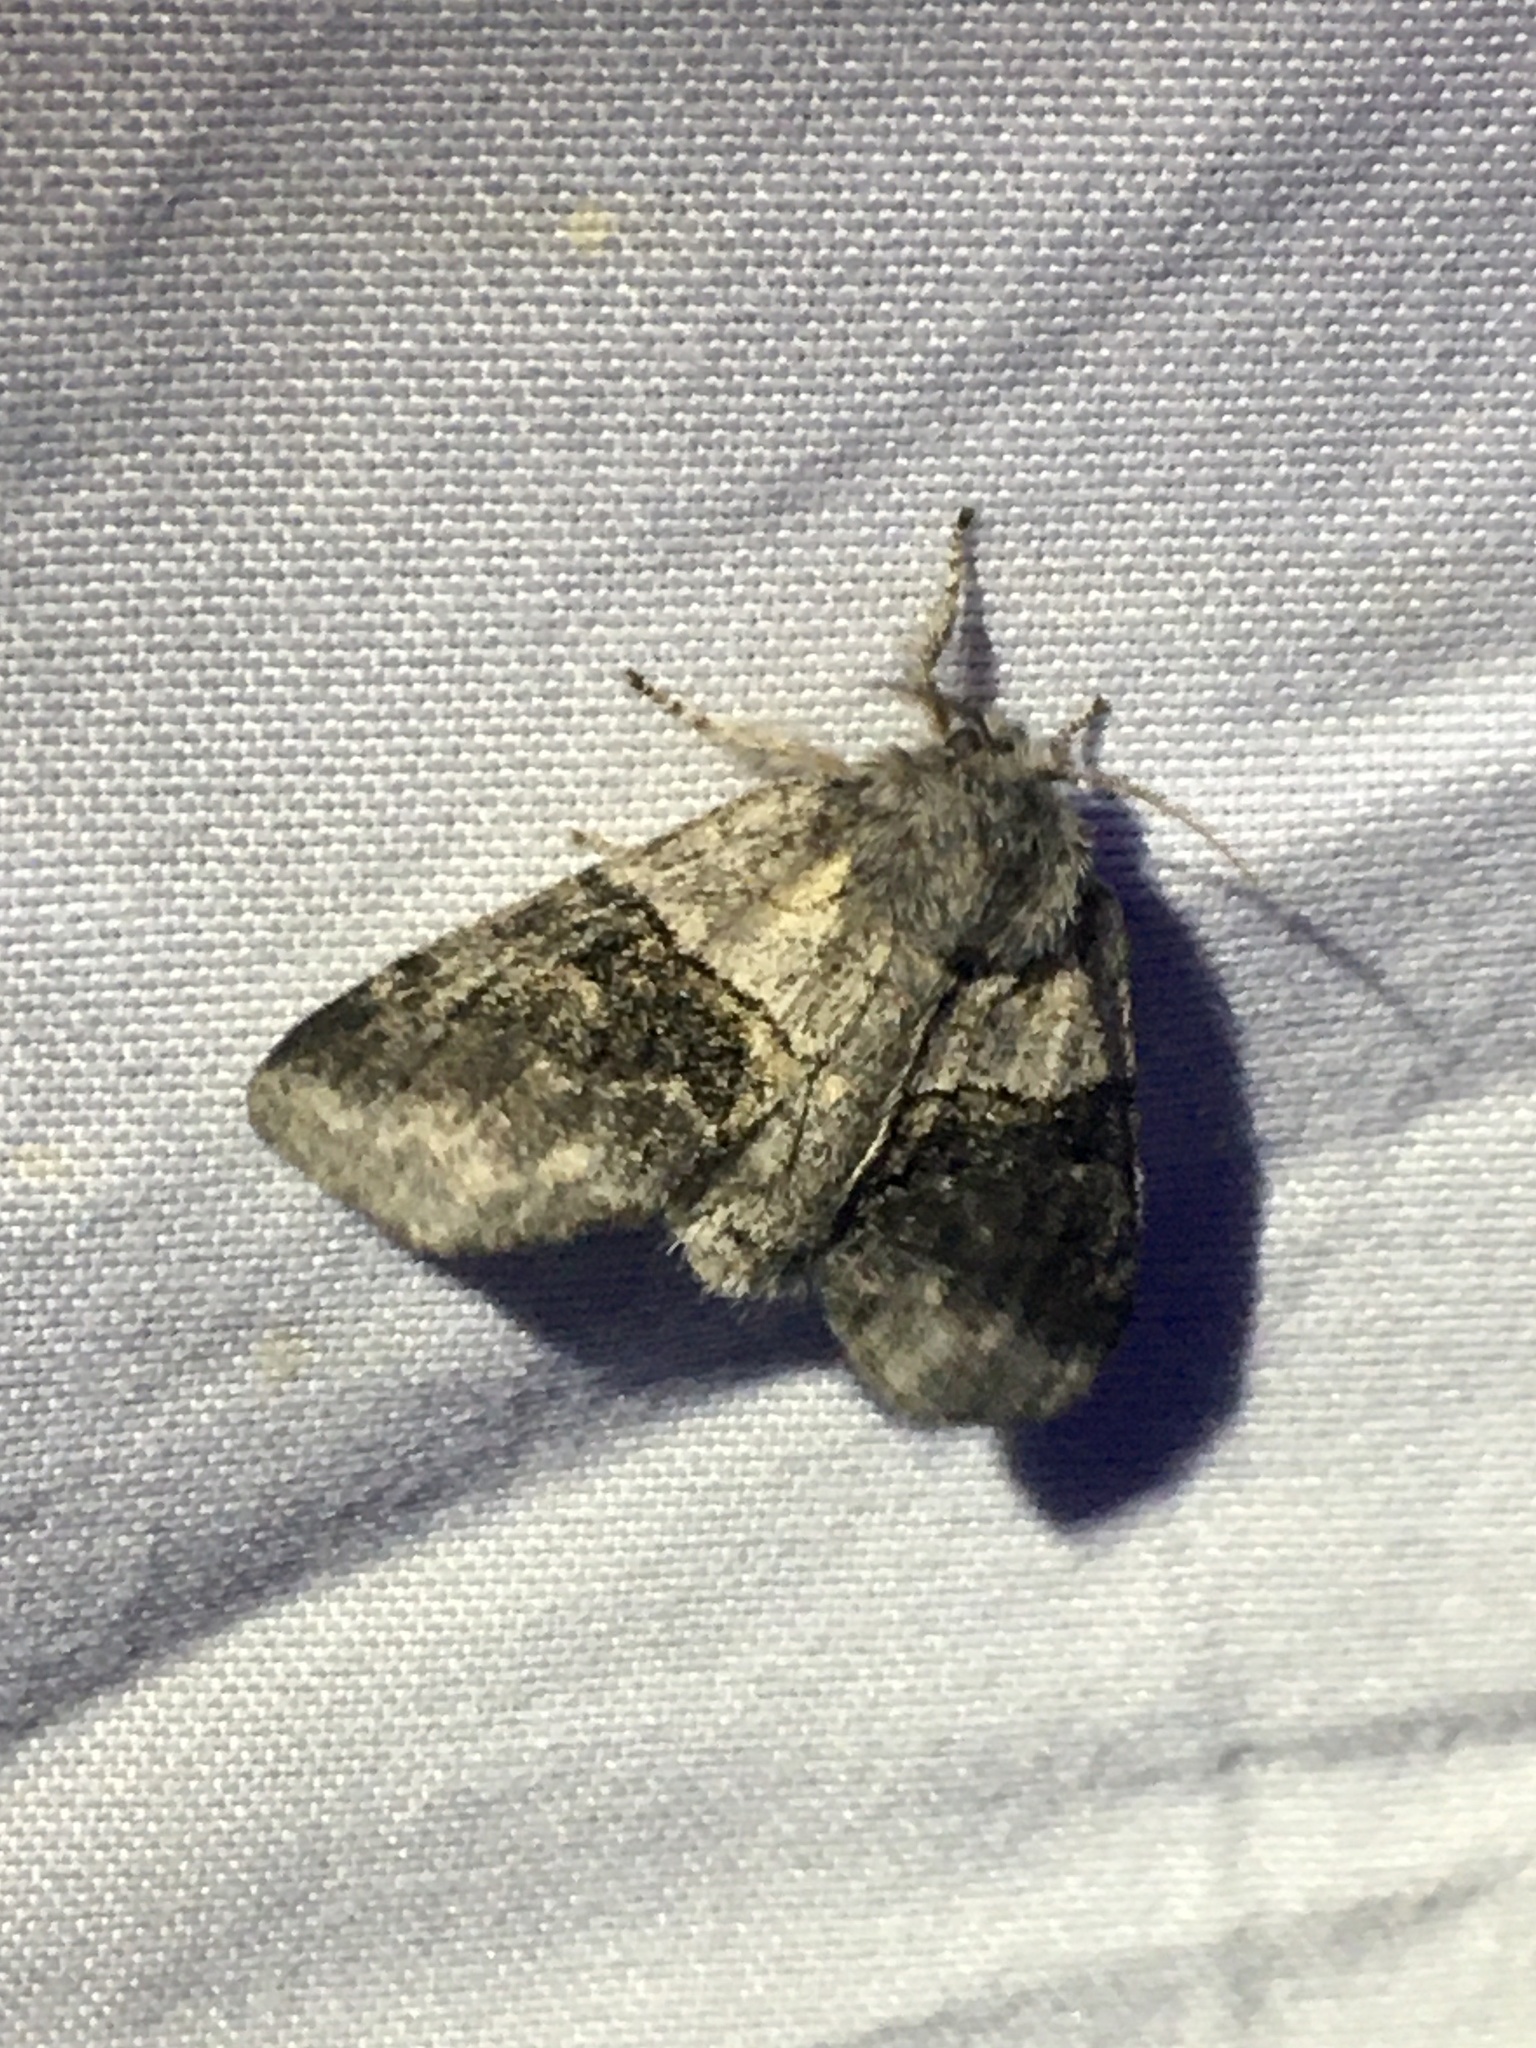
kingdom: Animalia
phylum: Arthropoda
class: Insecta
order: Lepidoptera
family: Notodontidae
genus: Gluphisia
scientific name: Gluphisia septentrionis
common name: Common gluphisia
